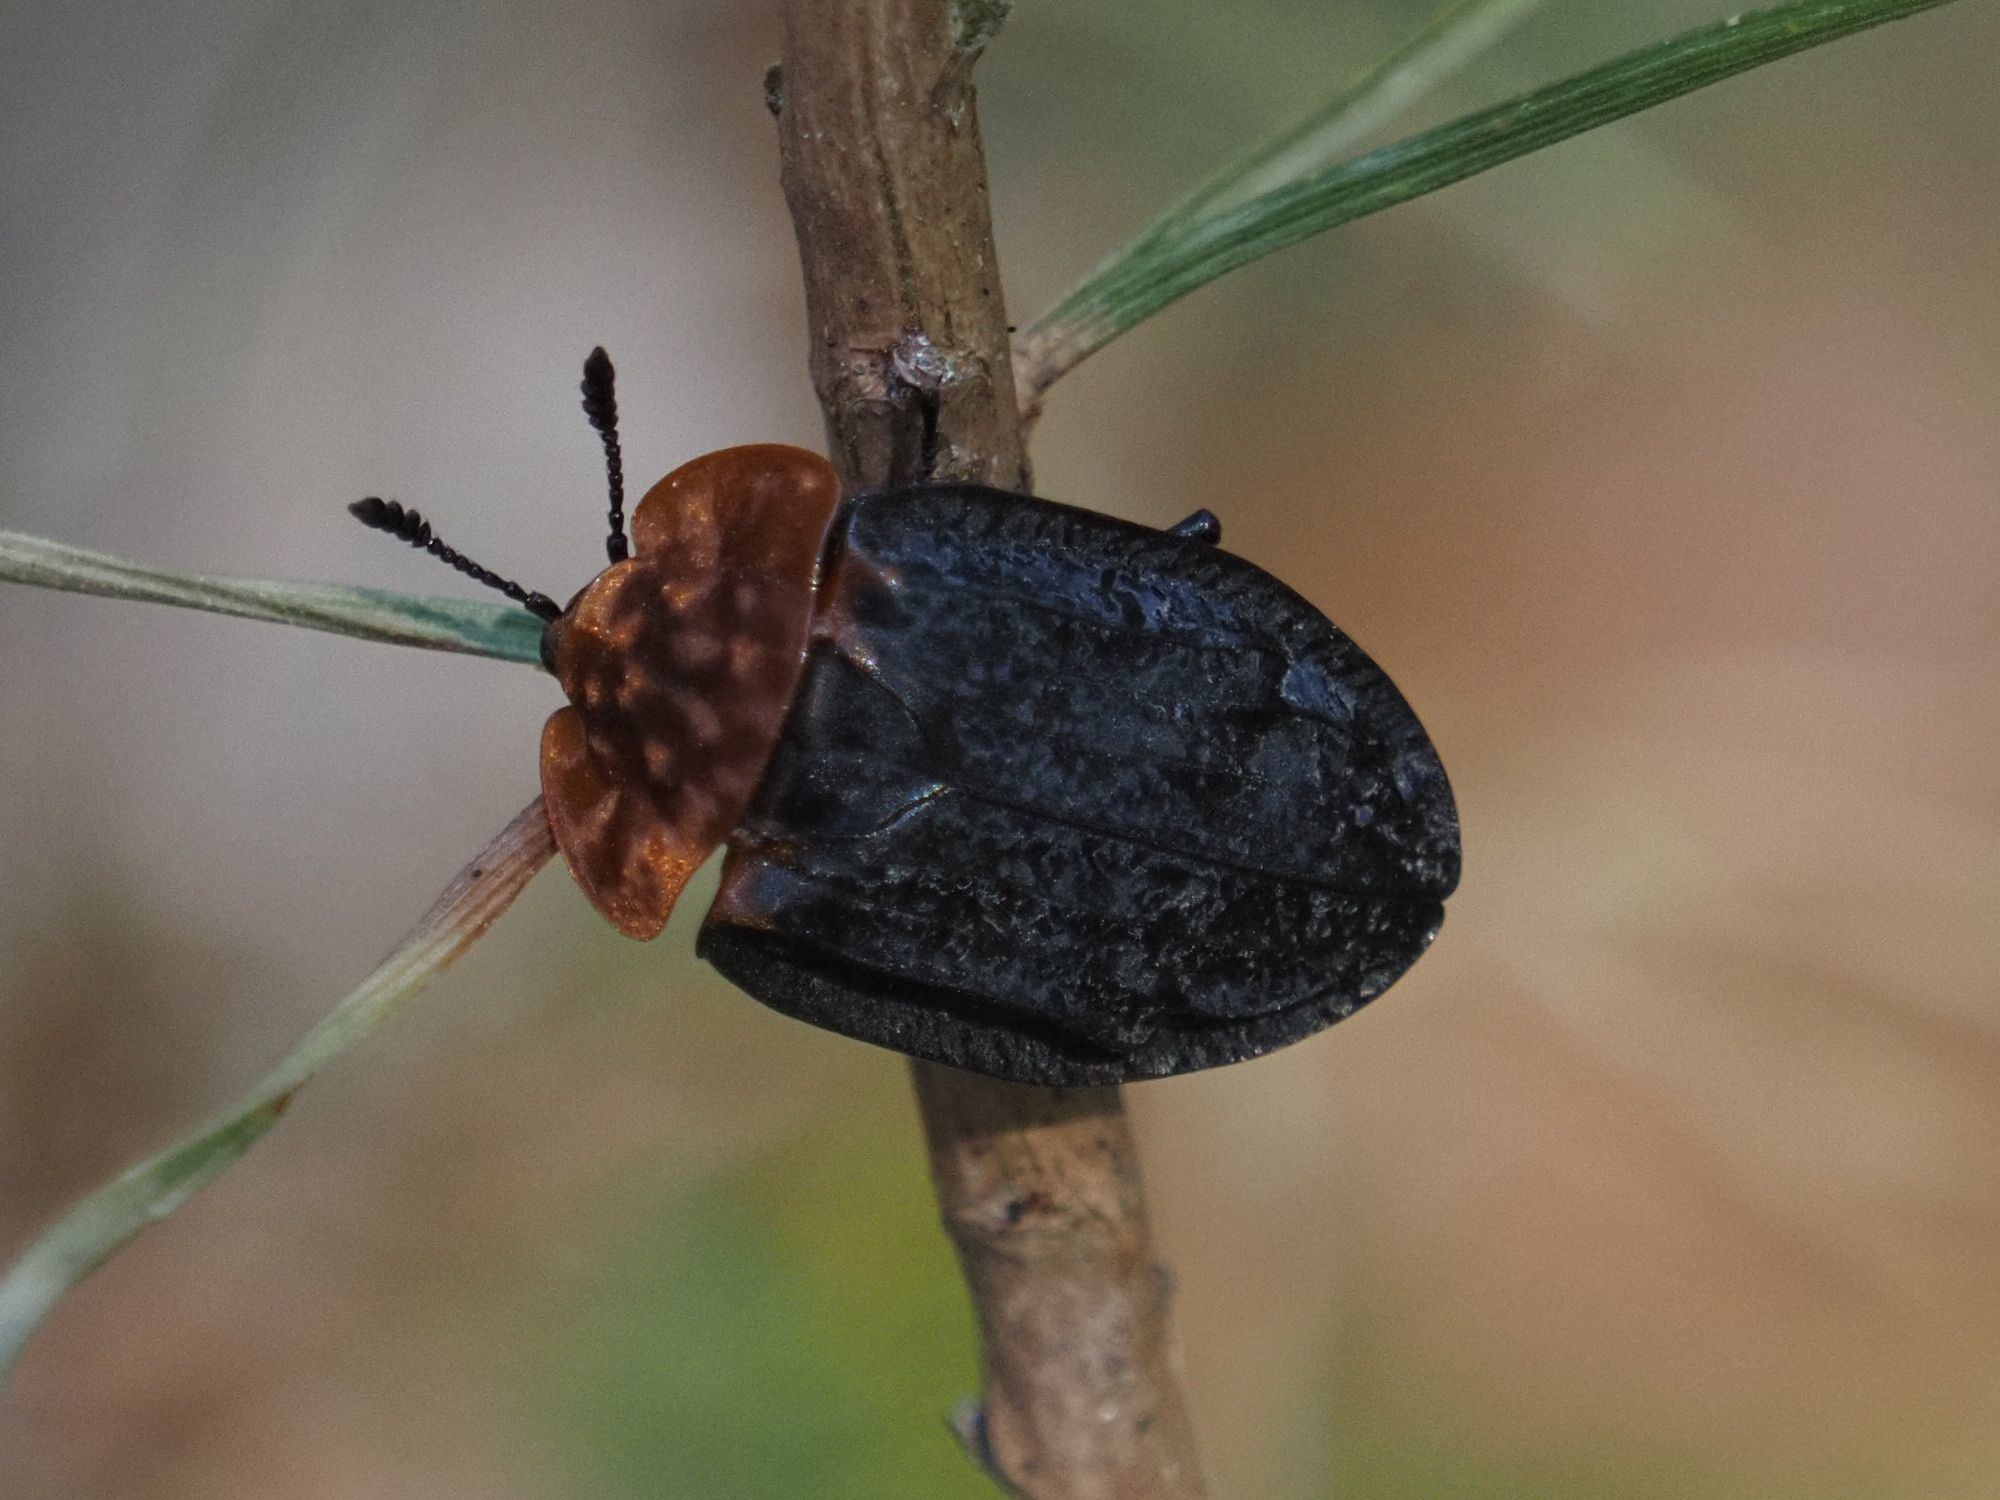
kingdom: Animalia
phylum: Arthropoda
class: Insecta
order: Coleoptera
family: Staphylinidae
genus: Oiceoptoma
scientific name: Oiceoptoma thoracicum
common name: Red-breasted carrion beetle
